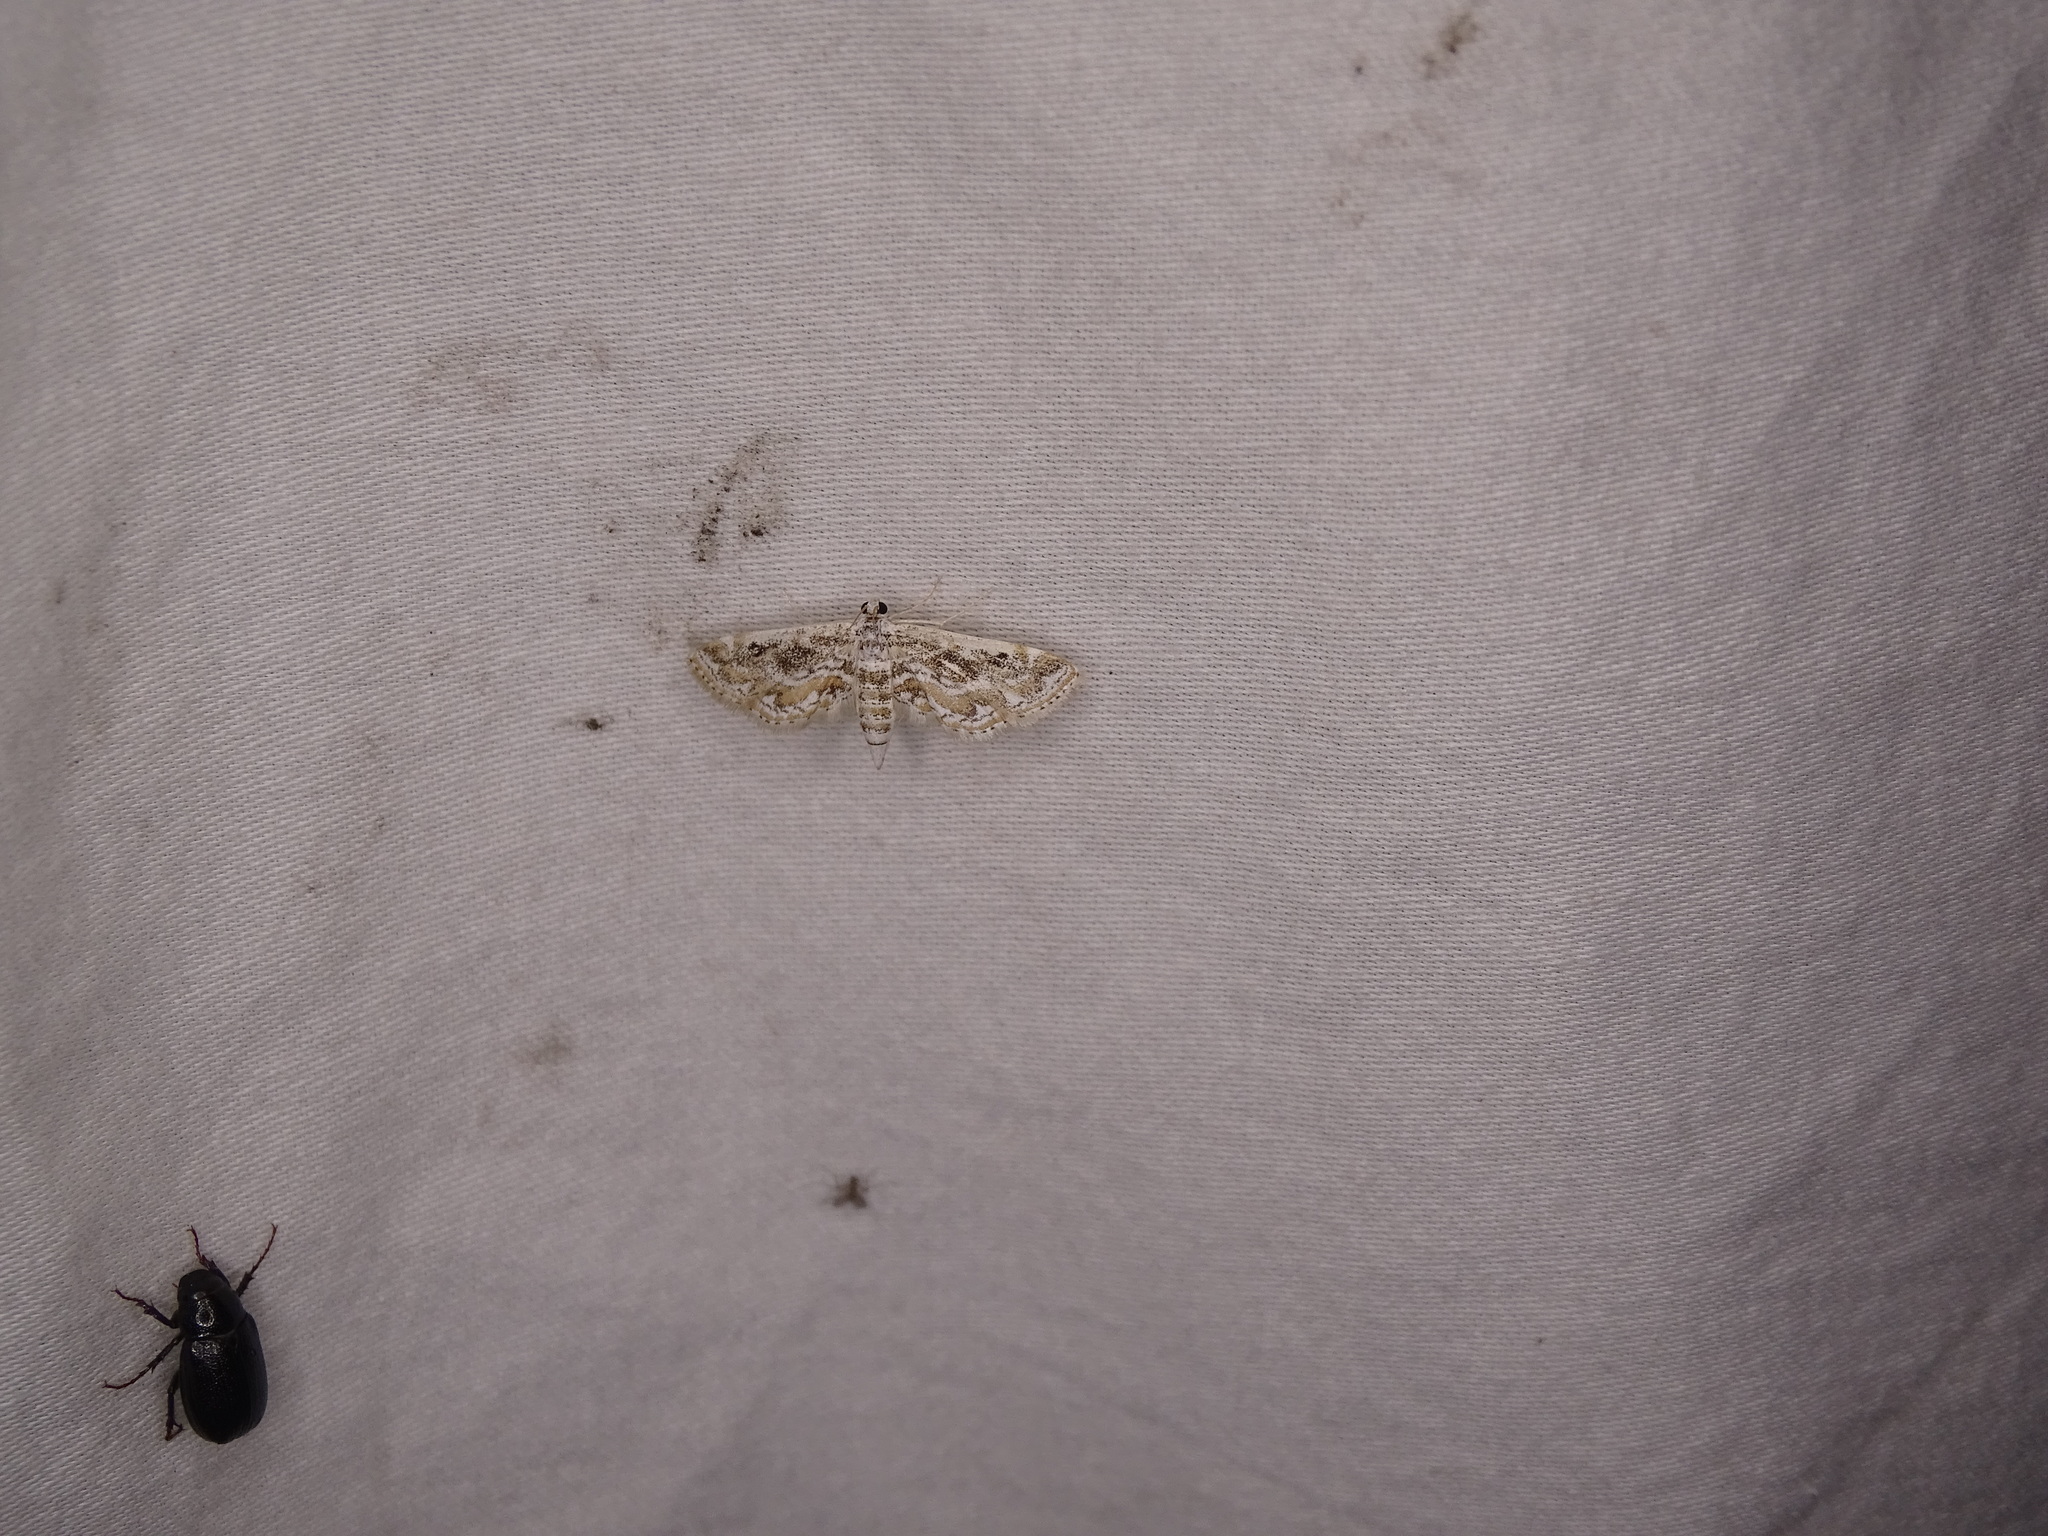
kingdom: Animalia
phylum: Arthropoda
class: Insecta
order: Lepidoptera
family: Crambidae
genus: Parapoynx
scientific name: Parapoynx diminutalis
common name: Hydrilla leafcutter
